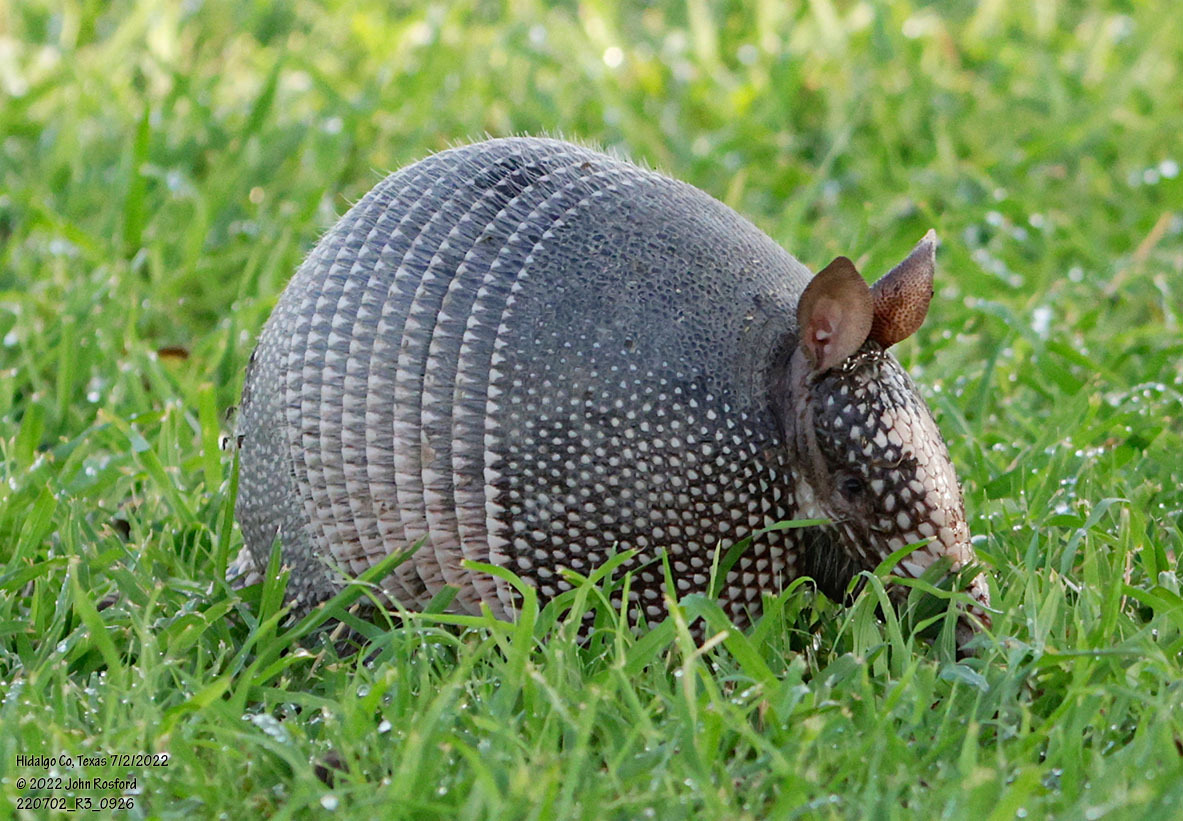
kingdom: Animalia
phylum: Chordata
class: Mammalia
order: Cingulata
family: Dasypodidae
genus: Dasypus
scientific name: Dasypus novemcinctus
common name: Nine-banded armadillo
